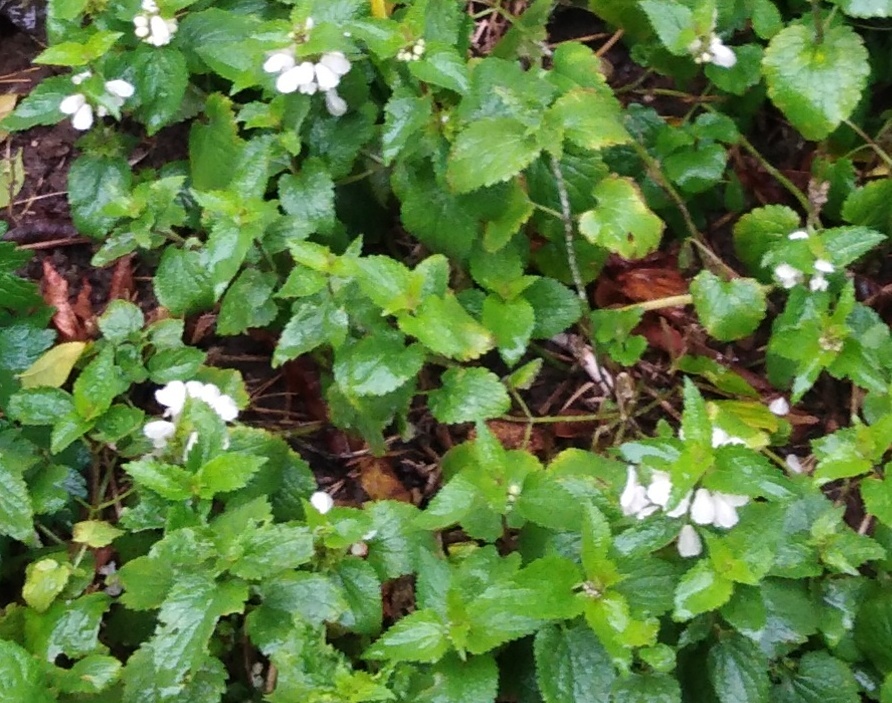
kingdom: Plantae
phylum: Tracheophyta
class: Magnoliopsida
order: Lamiales
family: Lamiaceae
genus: Lamium
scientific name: Lamium album
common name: White dead-nettle
